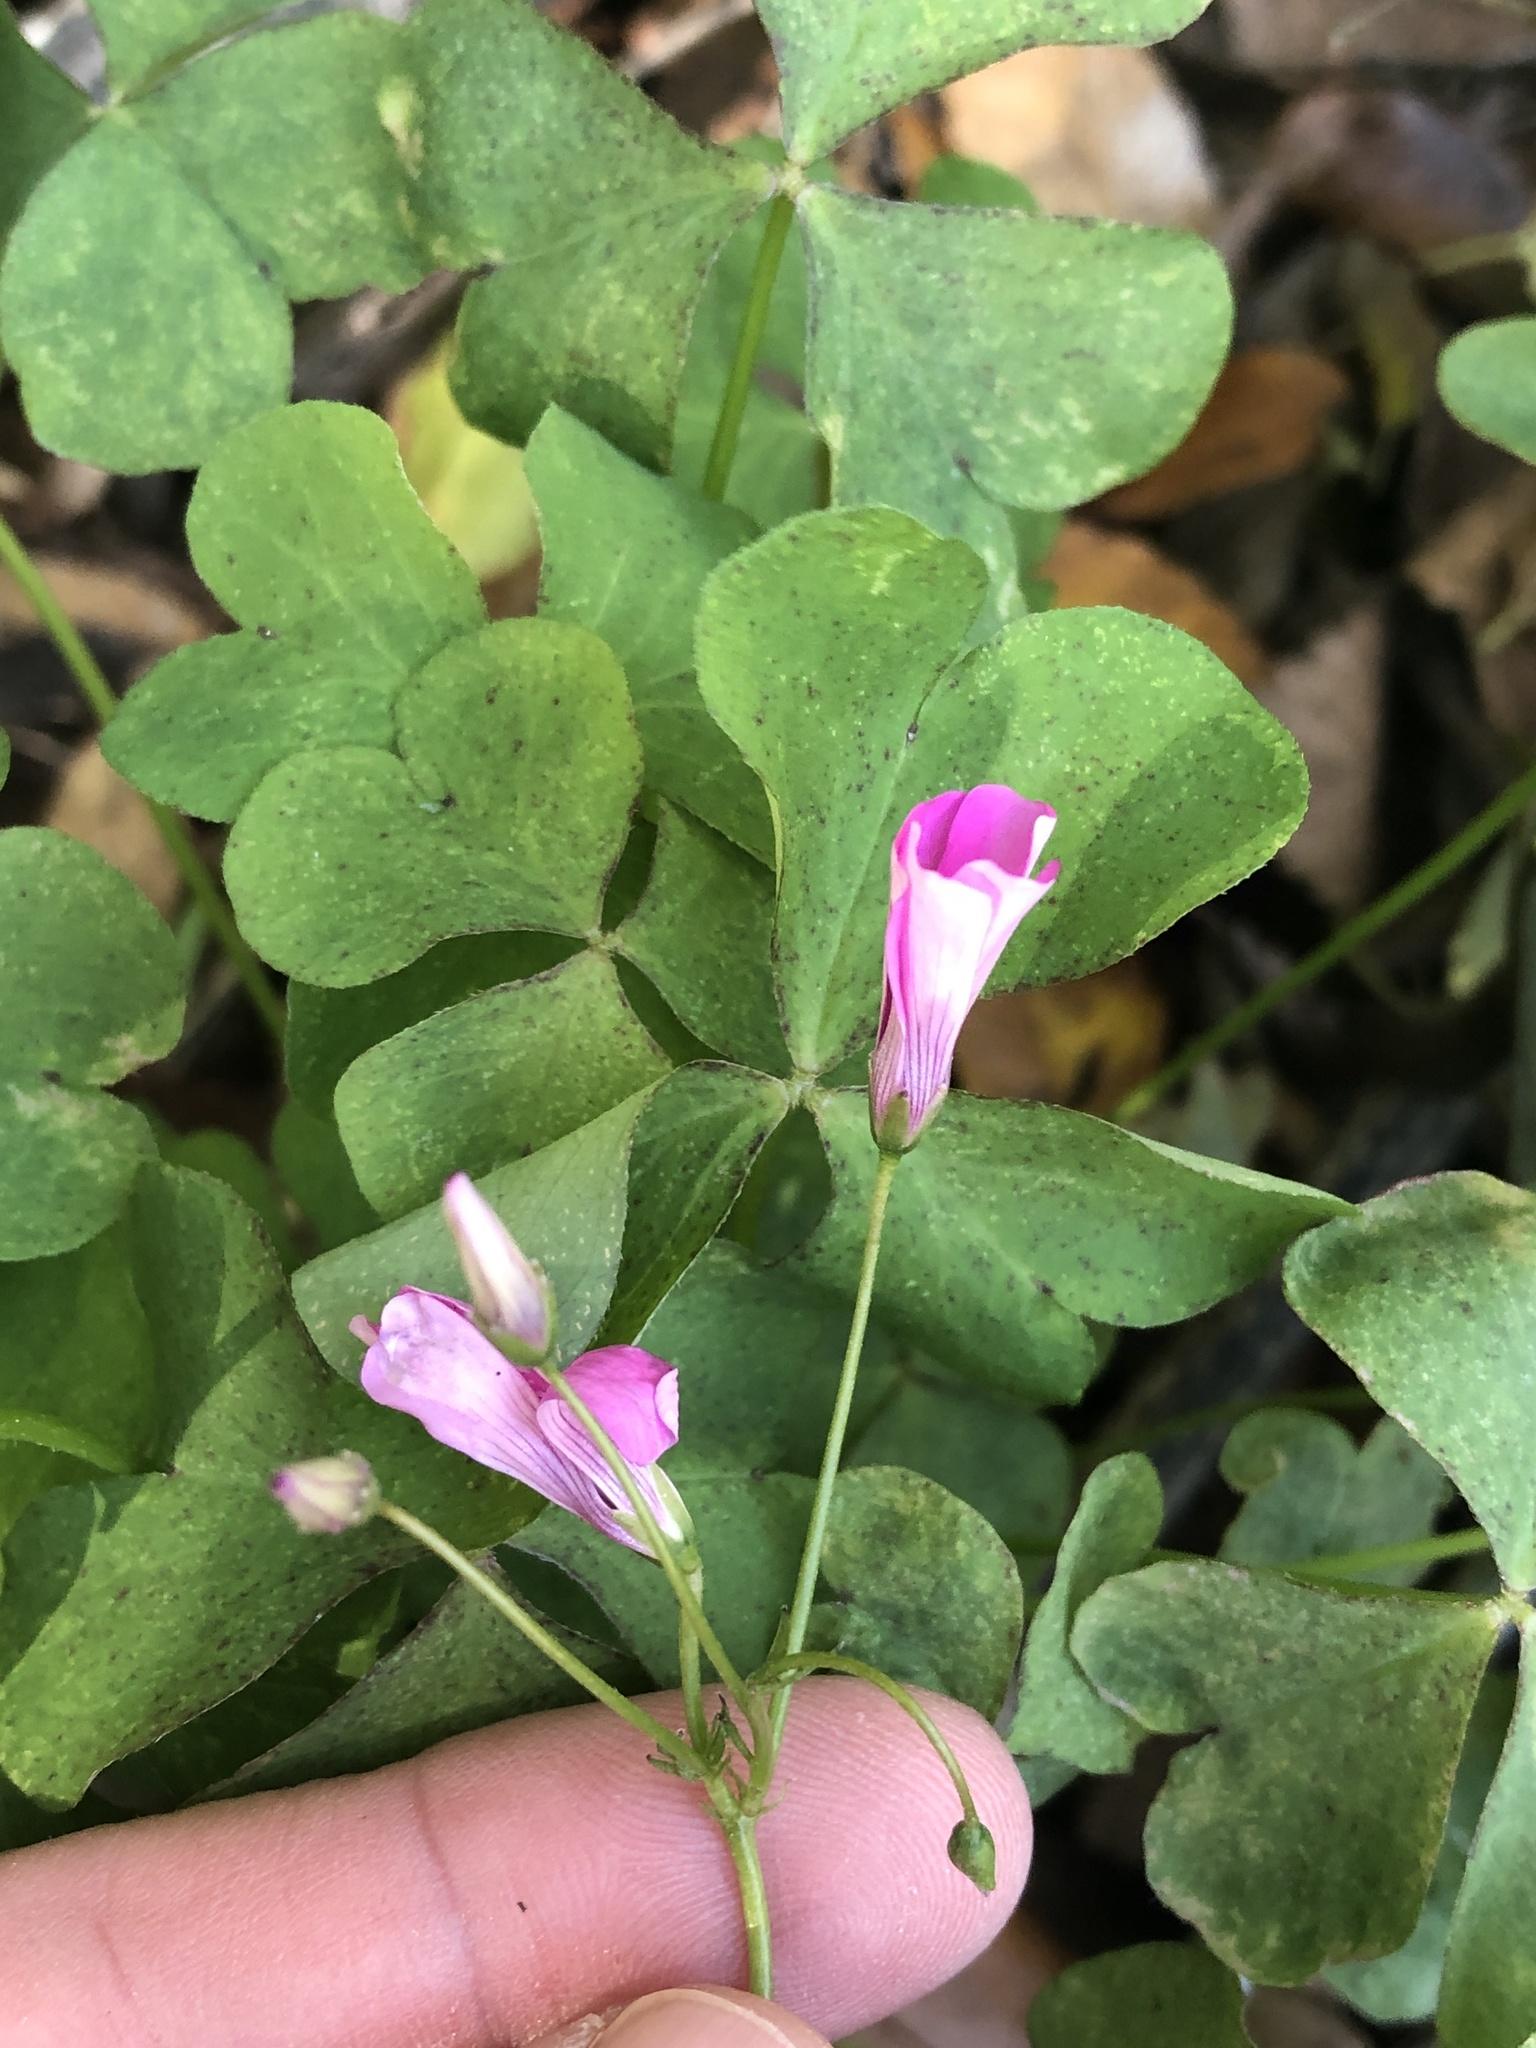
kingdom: Plantae
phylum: Tracheophyta
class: Magnoliopsida
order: Oxalidales
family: Oxalidaceae
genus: Oxalis
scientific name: Oxalis articulata
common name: Pink-sorrel
